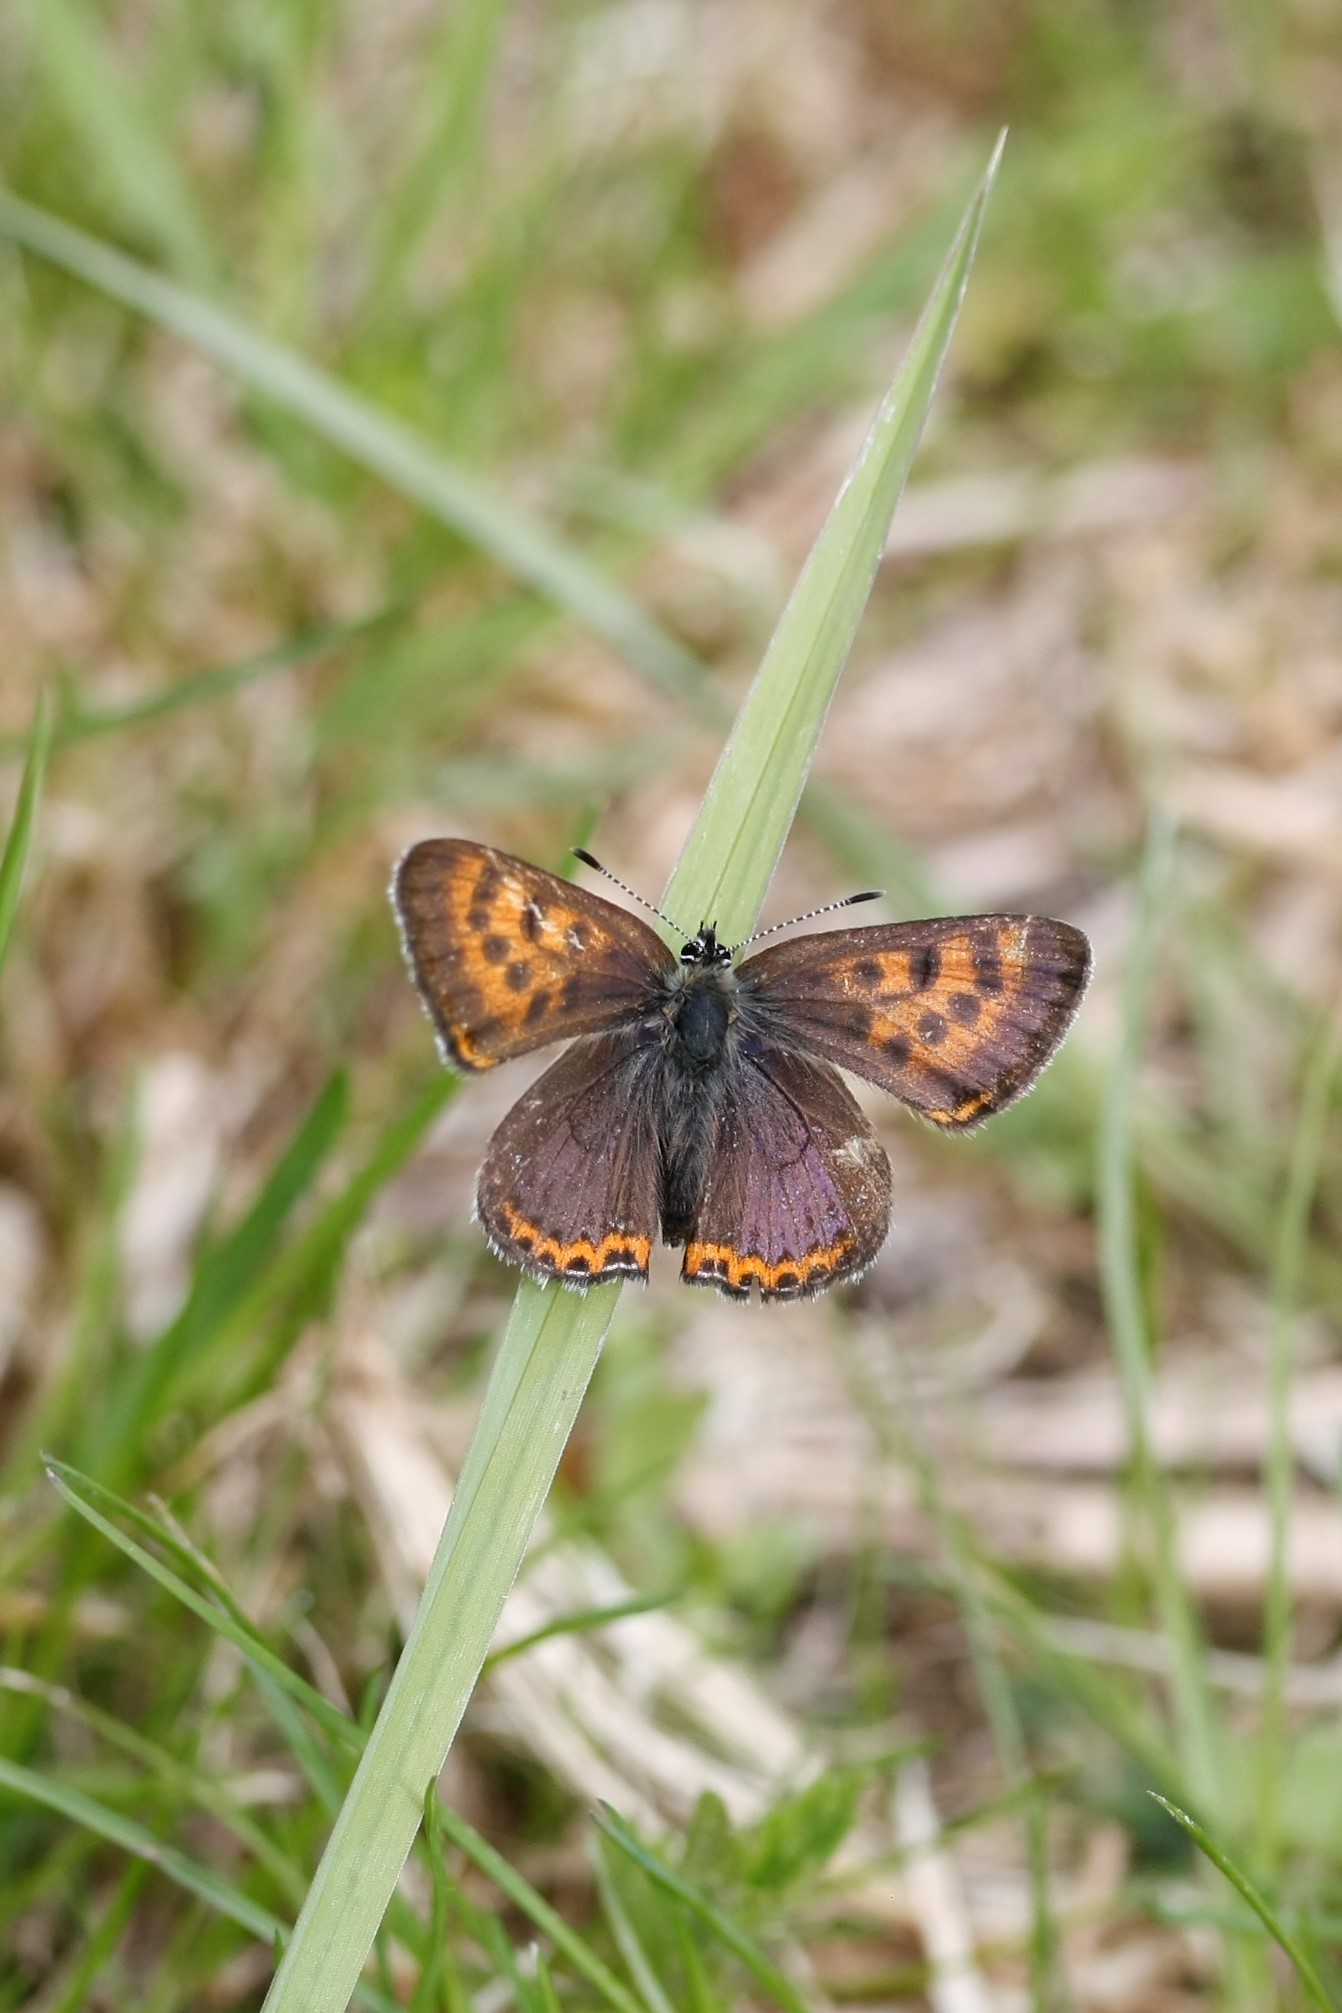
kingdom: Animalia
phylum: Arthropoda
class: Insecta
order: Lepidoptera
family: Lycaenidae
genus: Helleia
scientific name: Helleia helle
